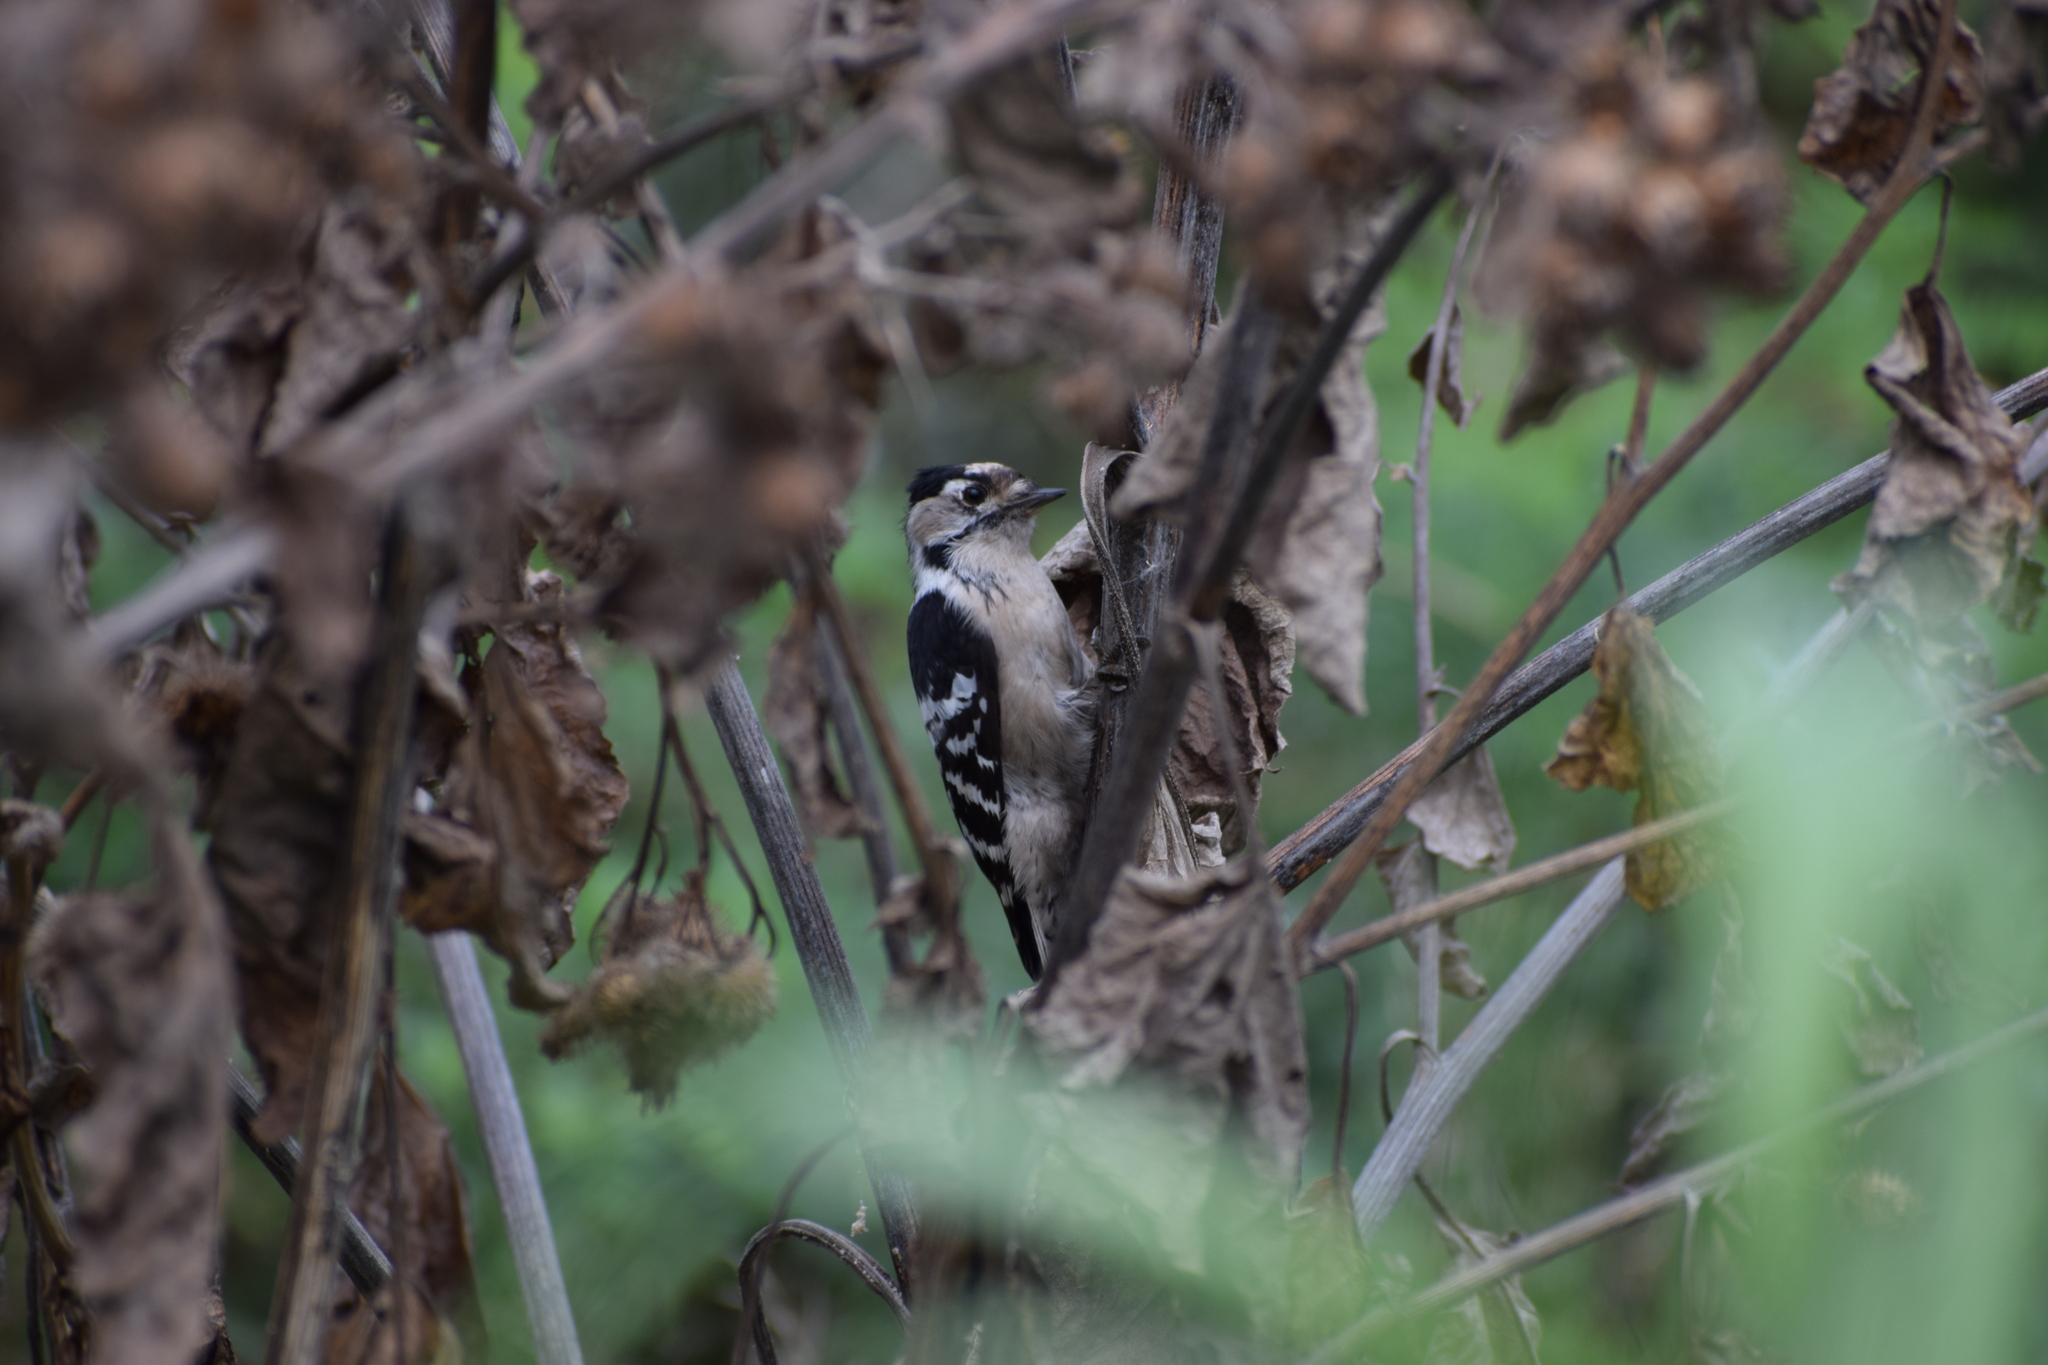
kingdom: Animalia
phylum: Chordata
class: Aves
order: Piciformes
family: Picidae
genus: Dryobates
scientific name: Dryobates minor
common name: Lesser spotted woodpecker
